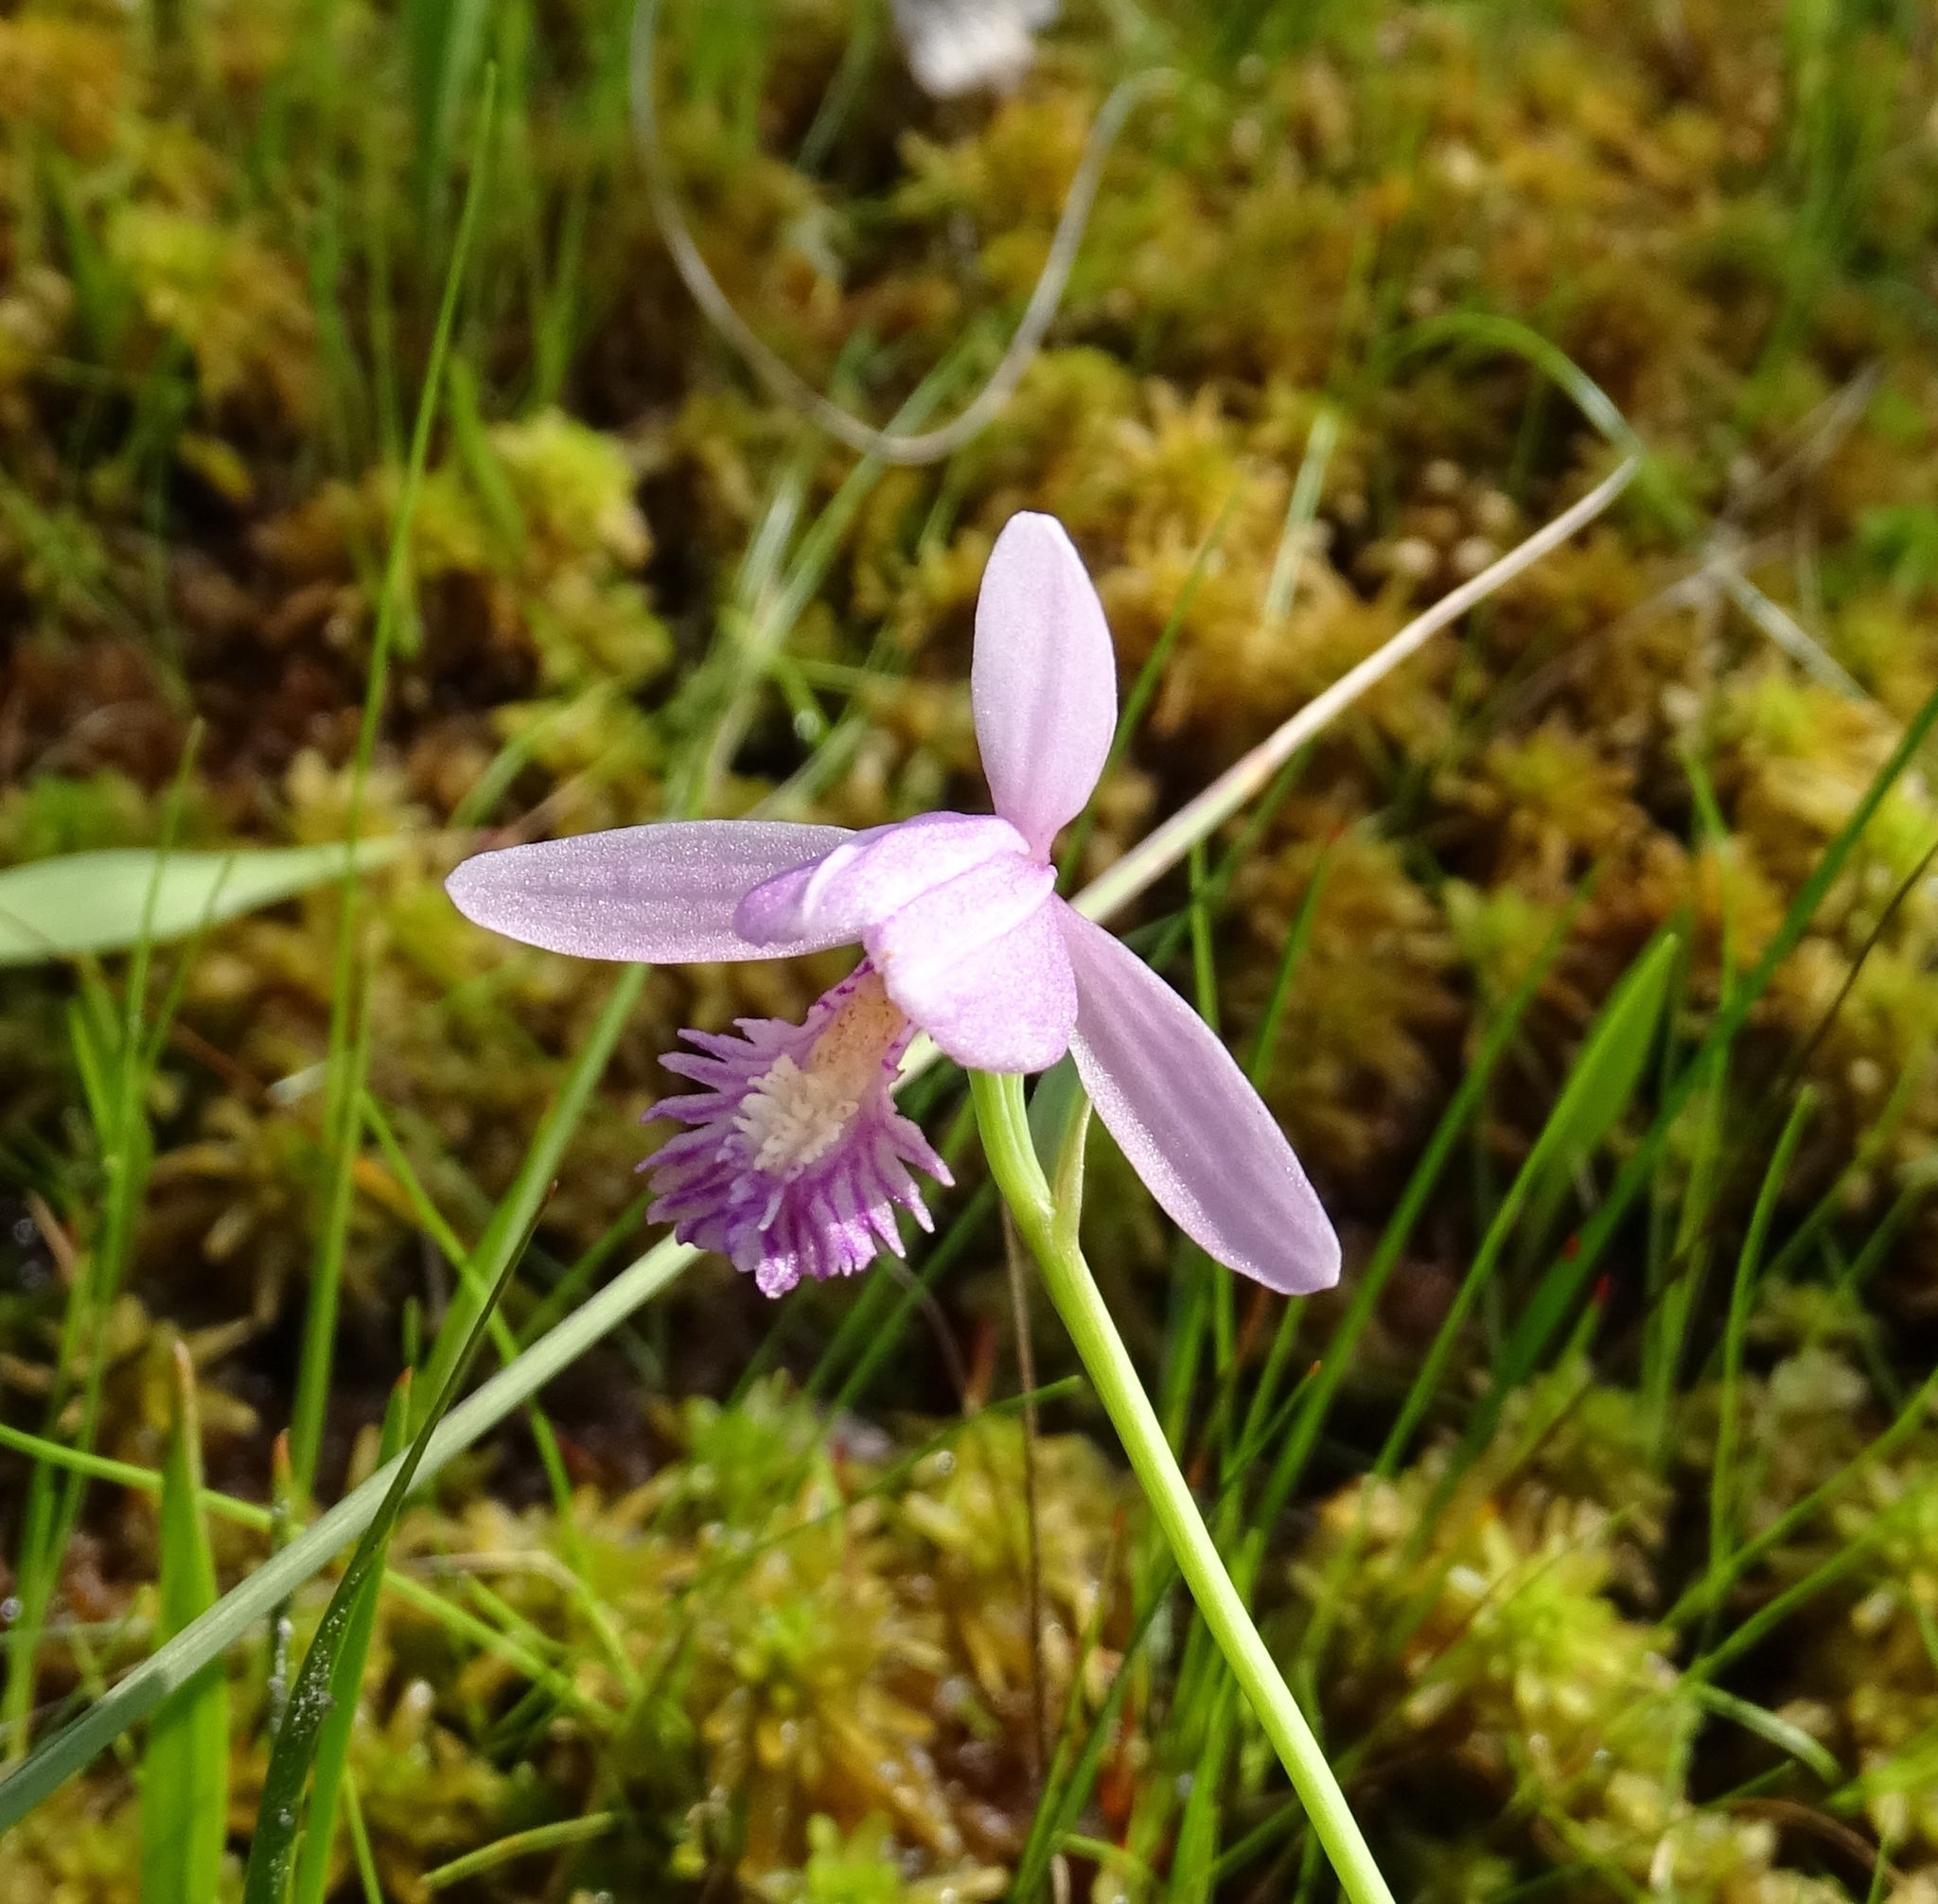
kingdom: Plantae
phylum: Tracheophyta
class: Liliopsida
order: Asparagales
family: Orchidaceae
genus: Pogonia
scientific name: Pogonia ophioglossoides
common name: Rose pogonia
